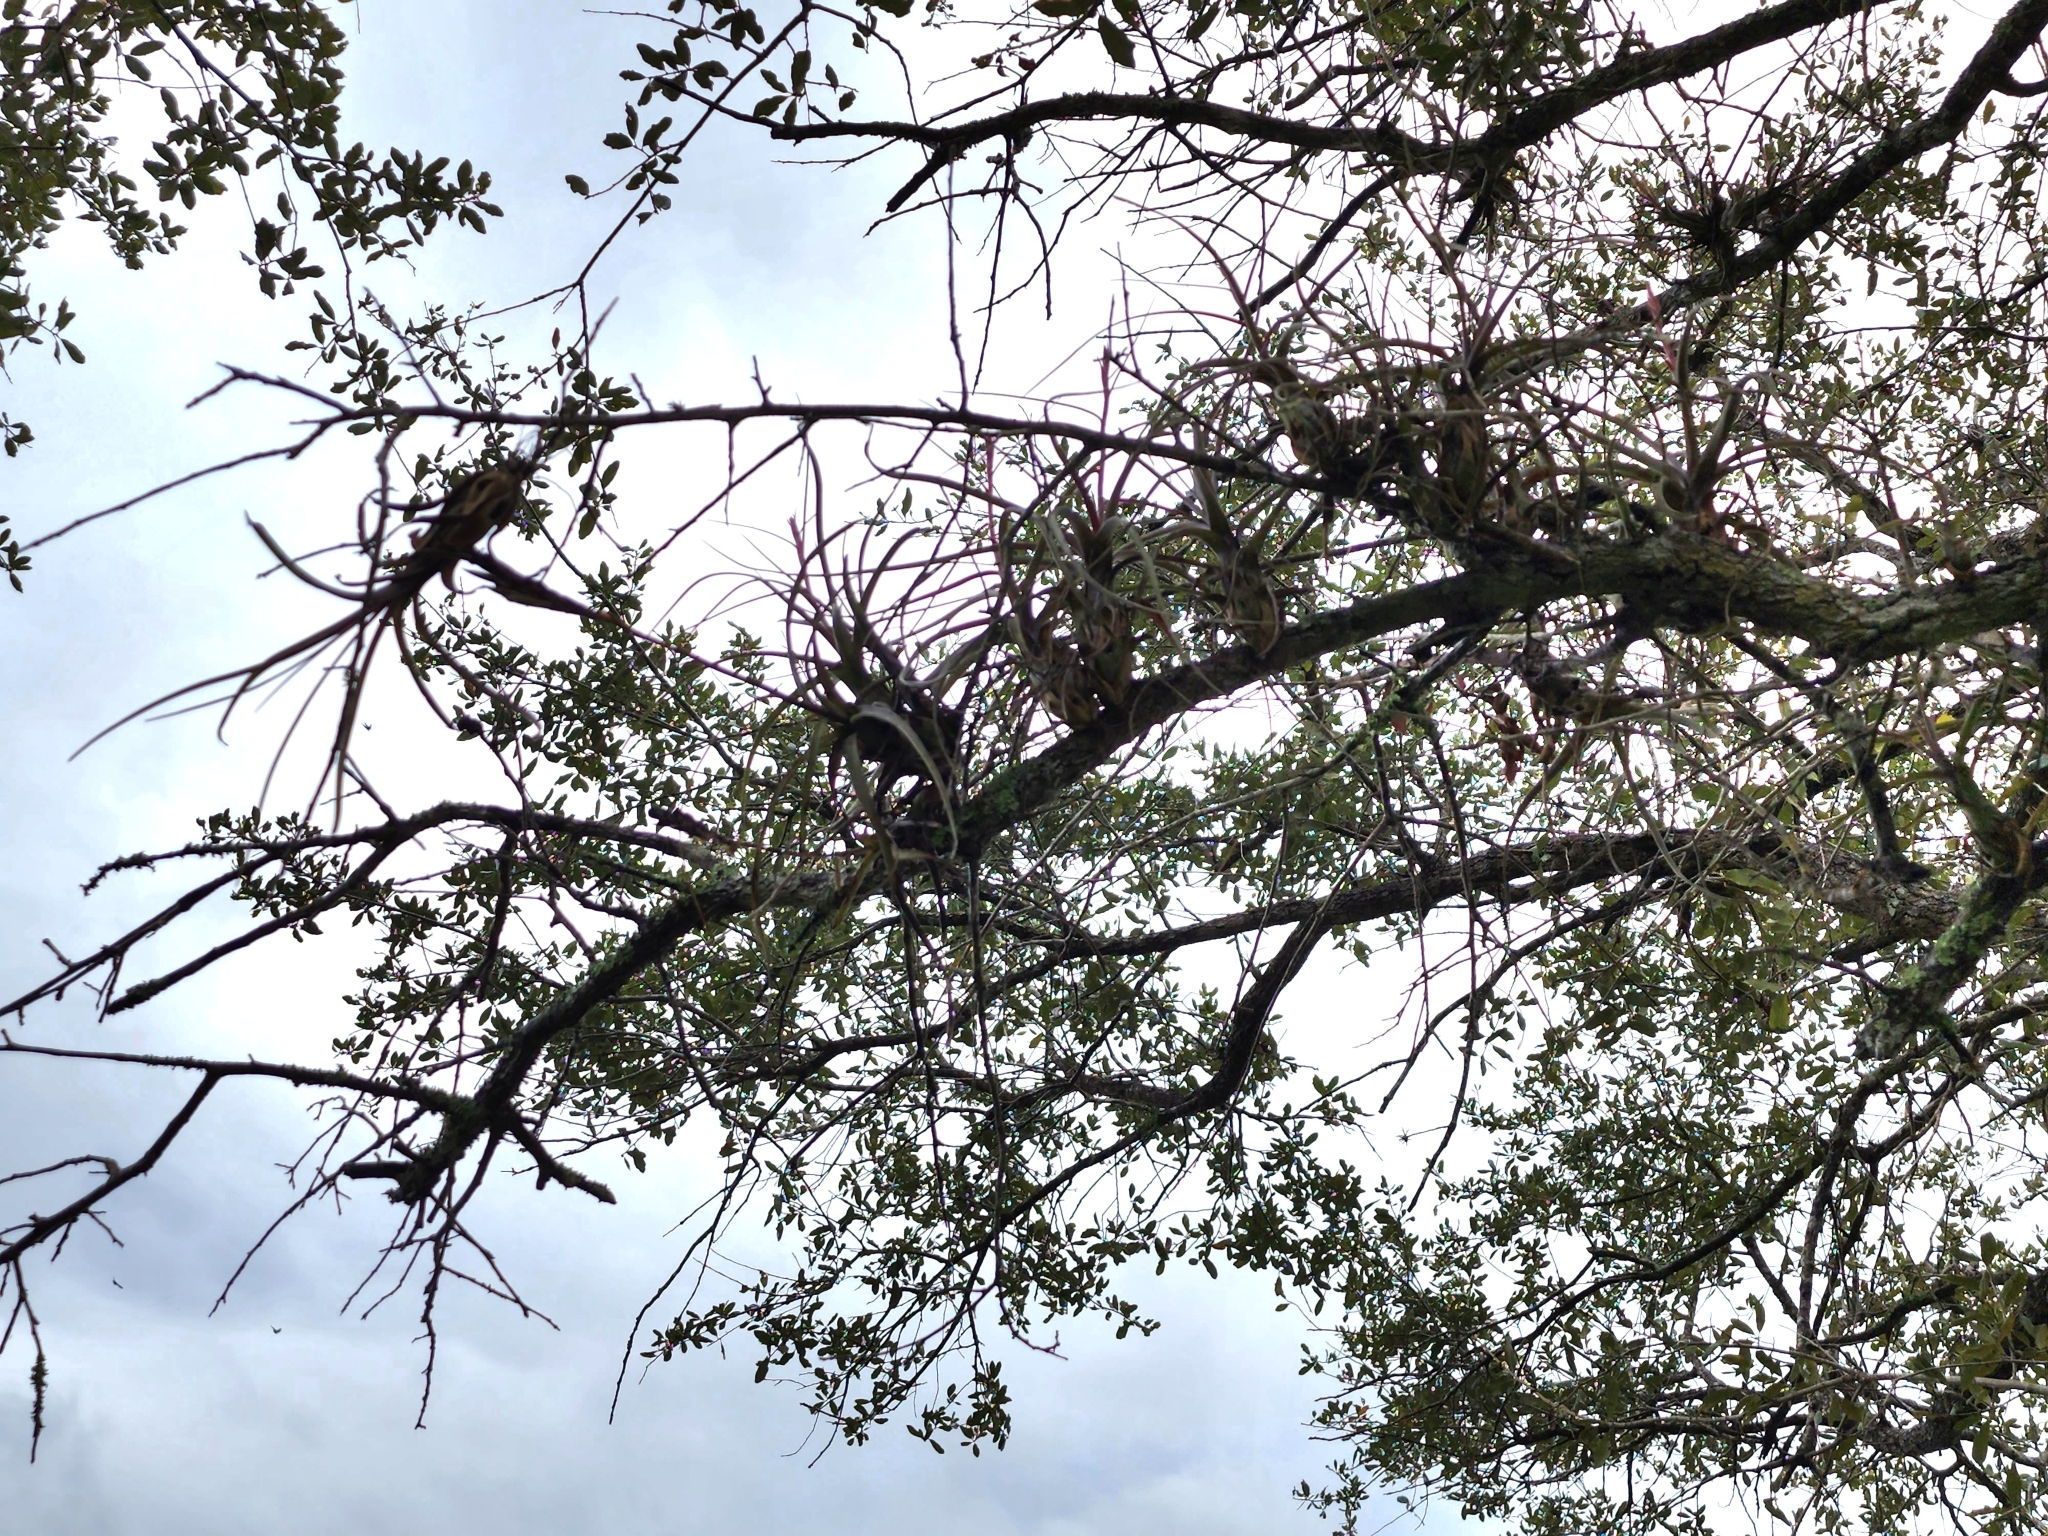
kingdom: Plantae
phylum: Tracheophyta
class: Liliopsida
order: Poales
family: Bromeliaceae
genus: Tillandsia
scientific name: Tillandsia balbisiana
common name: Northern needleleaf
